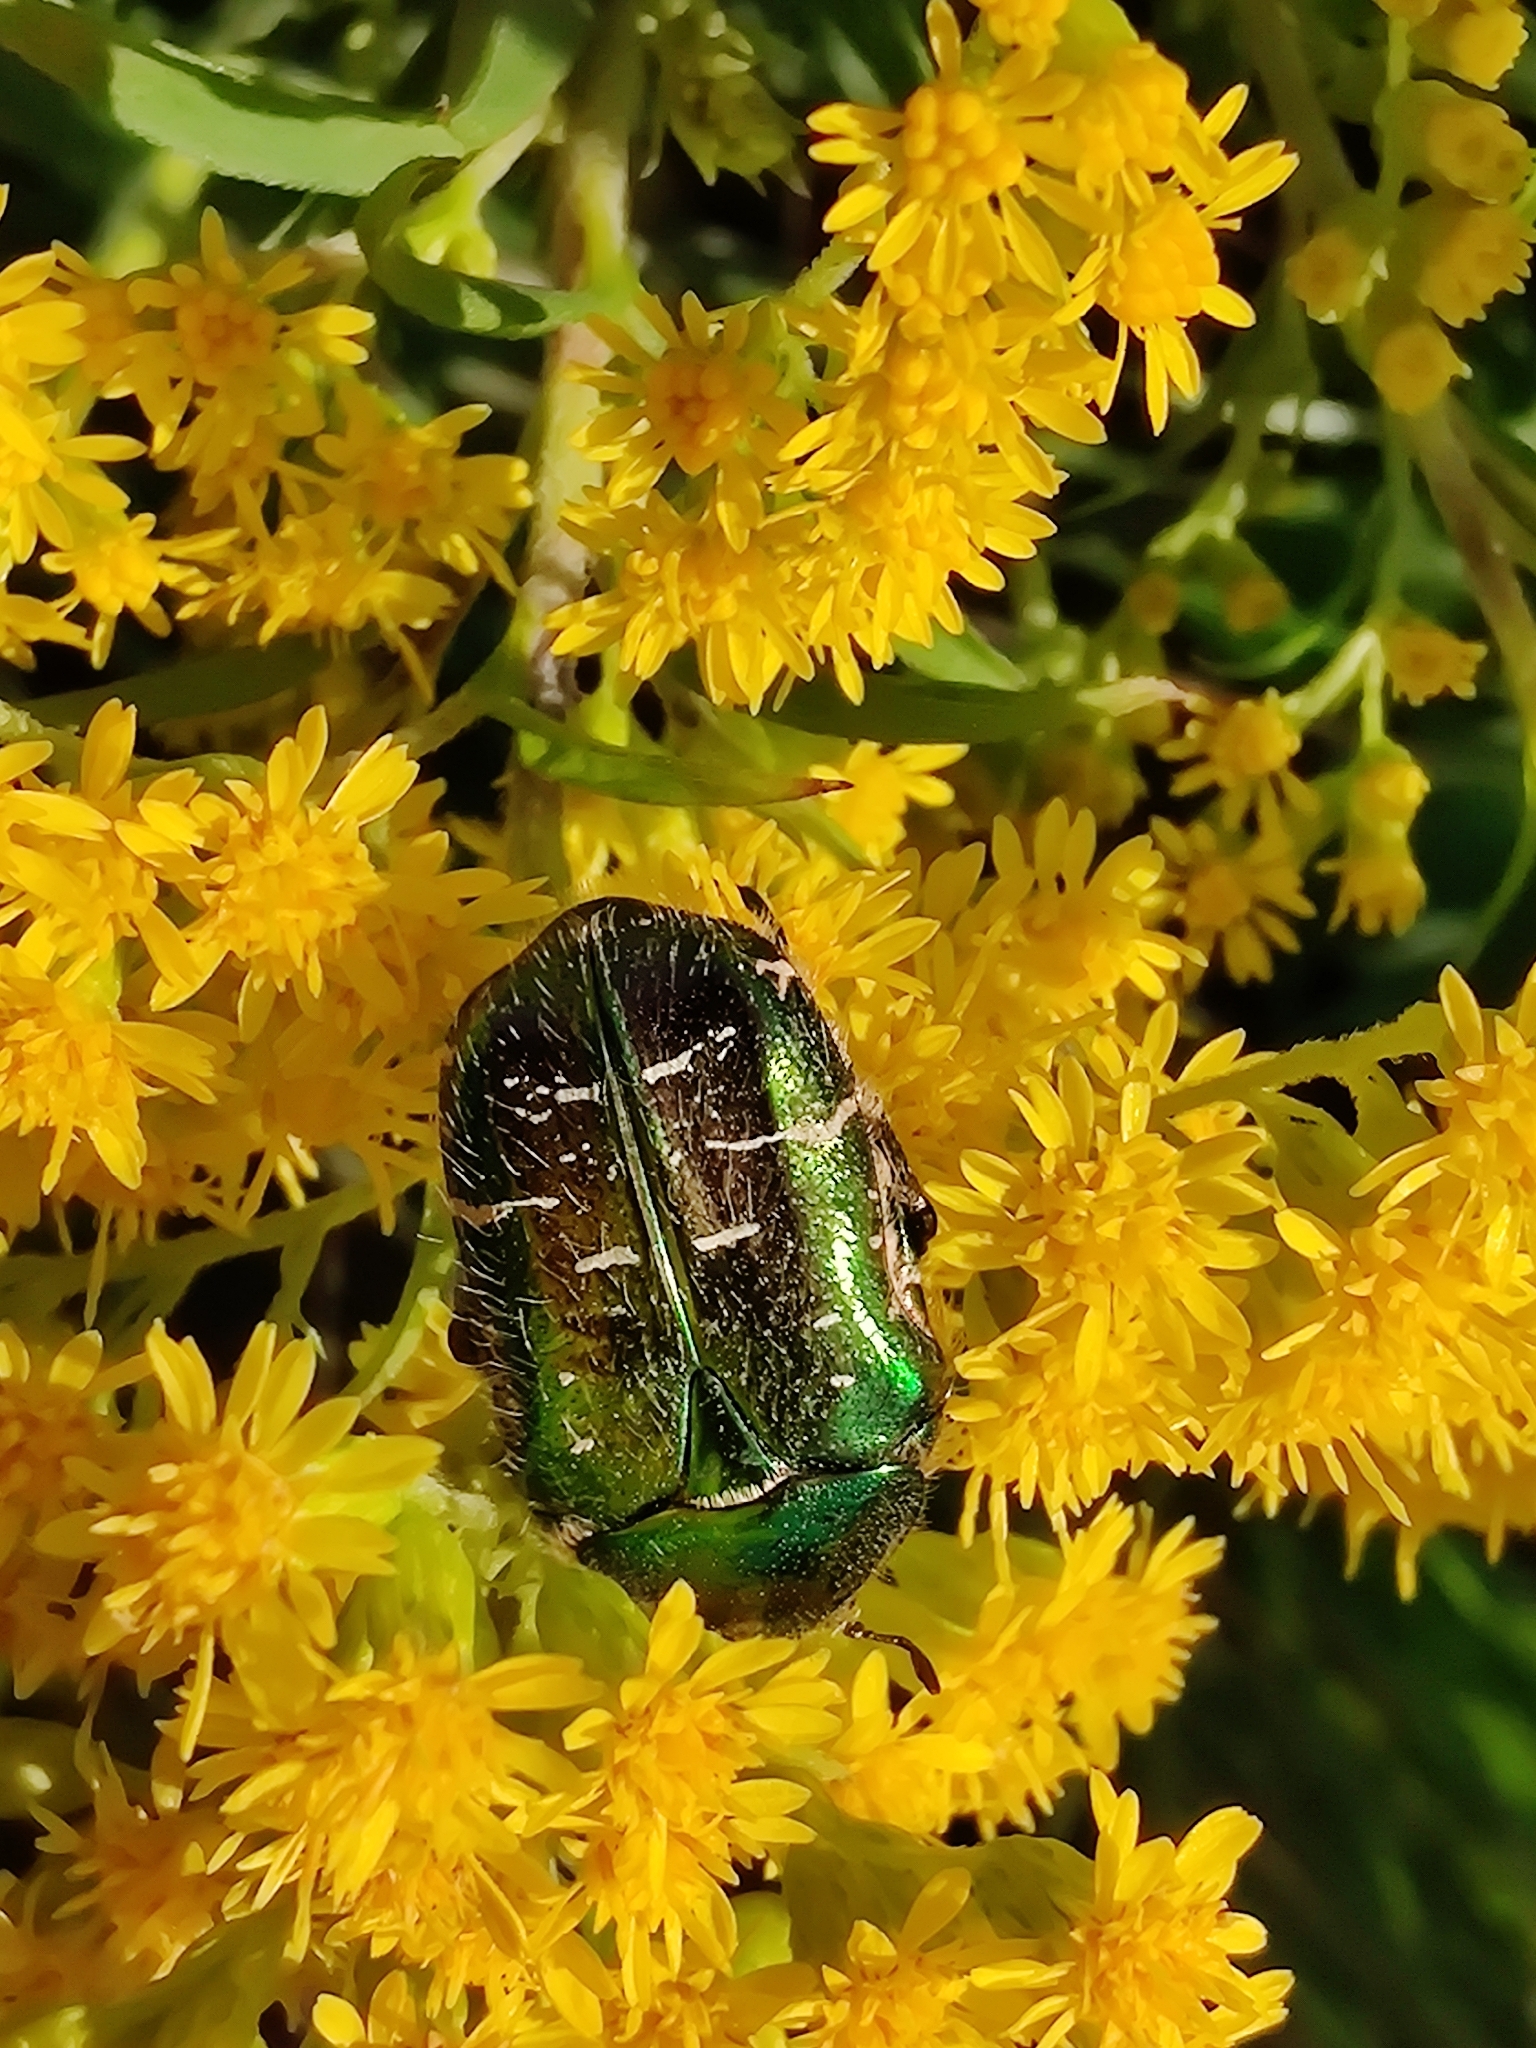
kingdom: Animalia
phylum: Arthropoda
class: Insecta
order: Coleoptera
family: Scarabaeidae
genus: Cetonia
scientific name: Cetonia aurata
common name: Rose chafer
